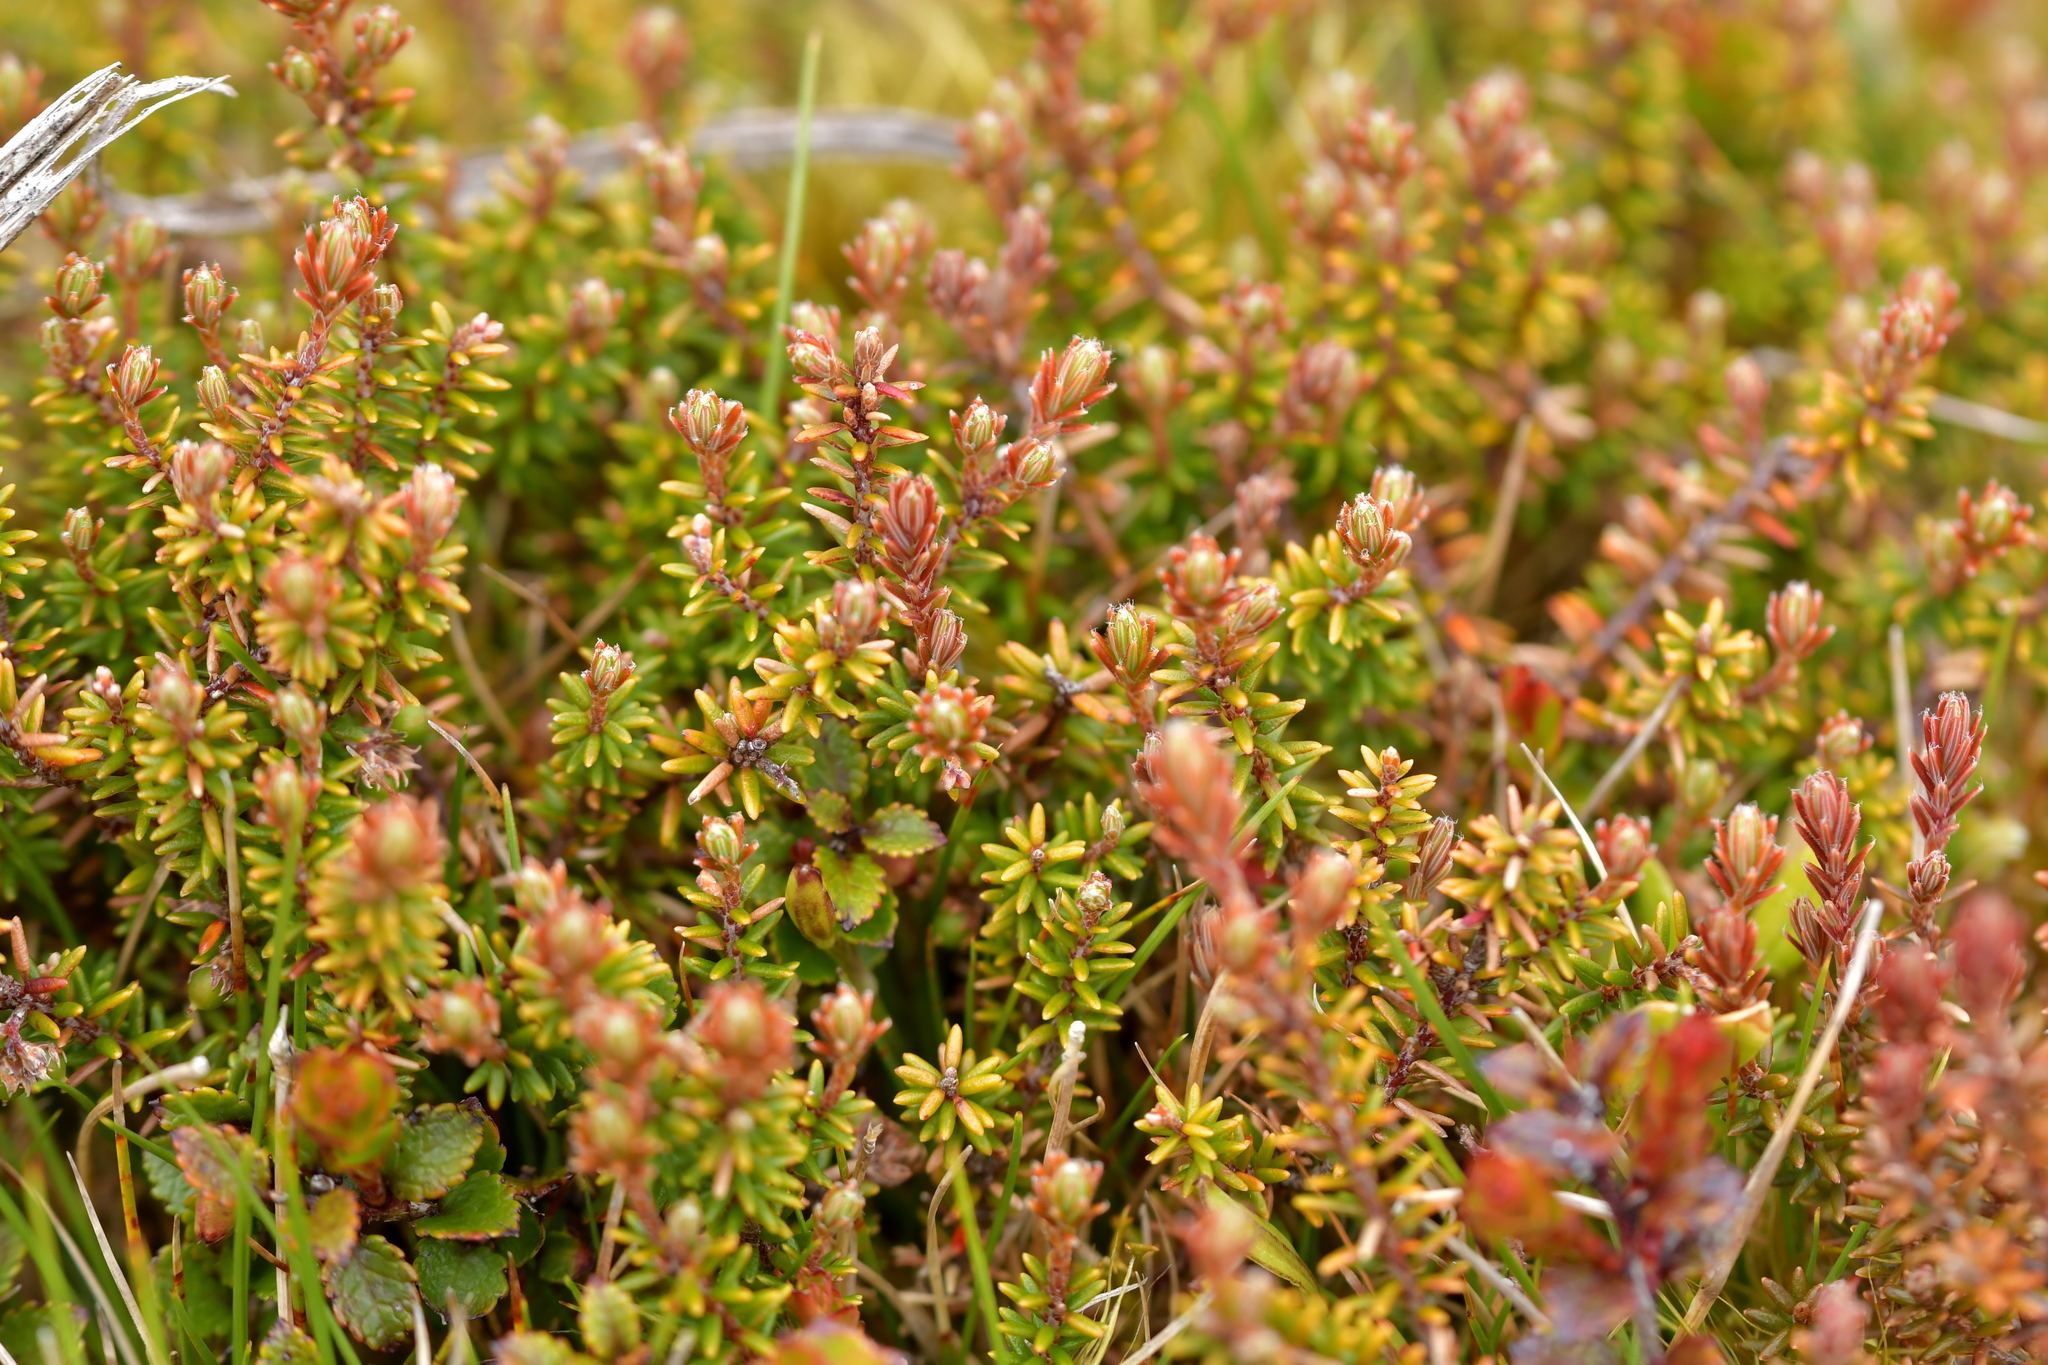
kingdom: Plantae
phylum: Tracheophyta
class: Magnoliopsida
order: Ericales
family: Ericaceae
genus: Androstoma
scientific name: Androstoma empetrifolia
